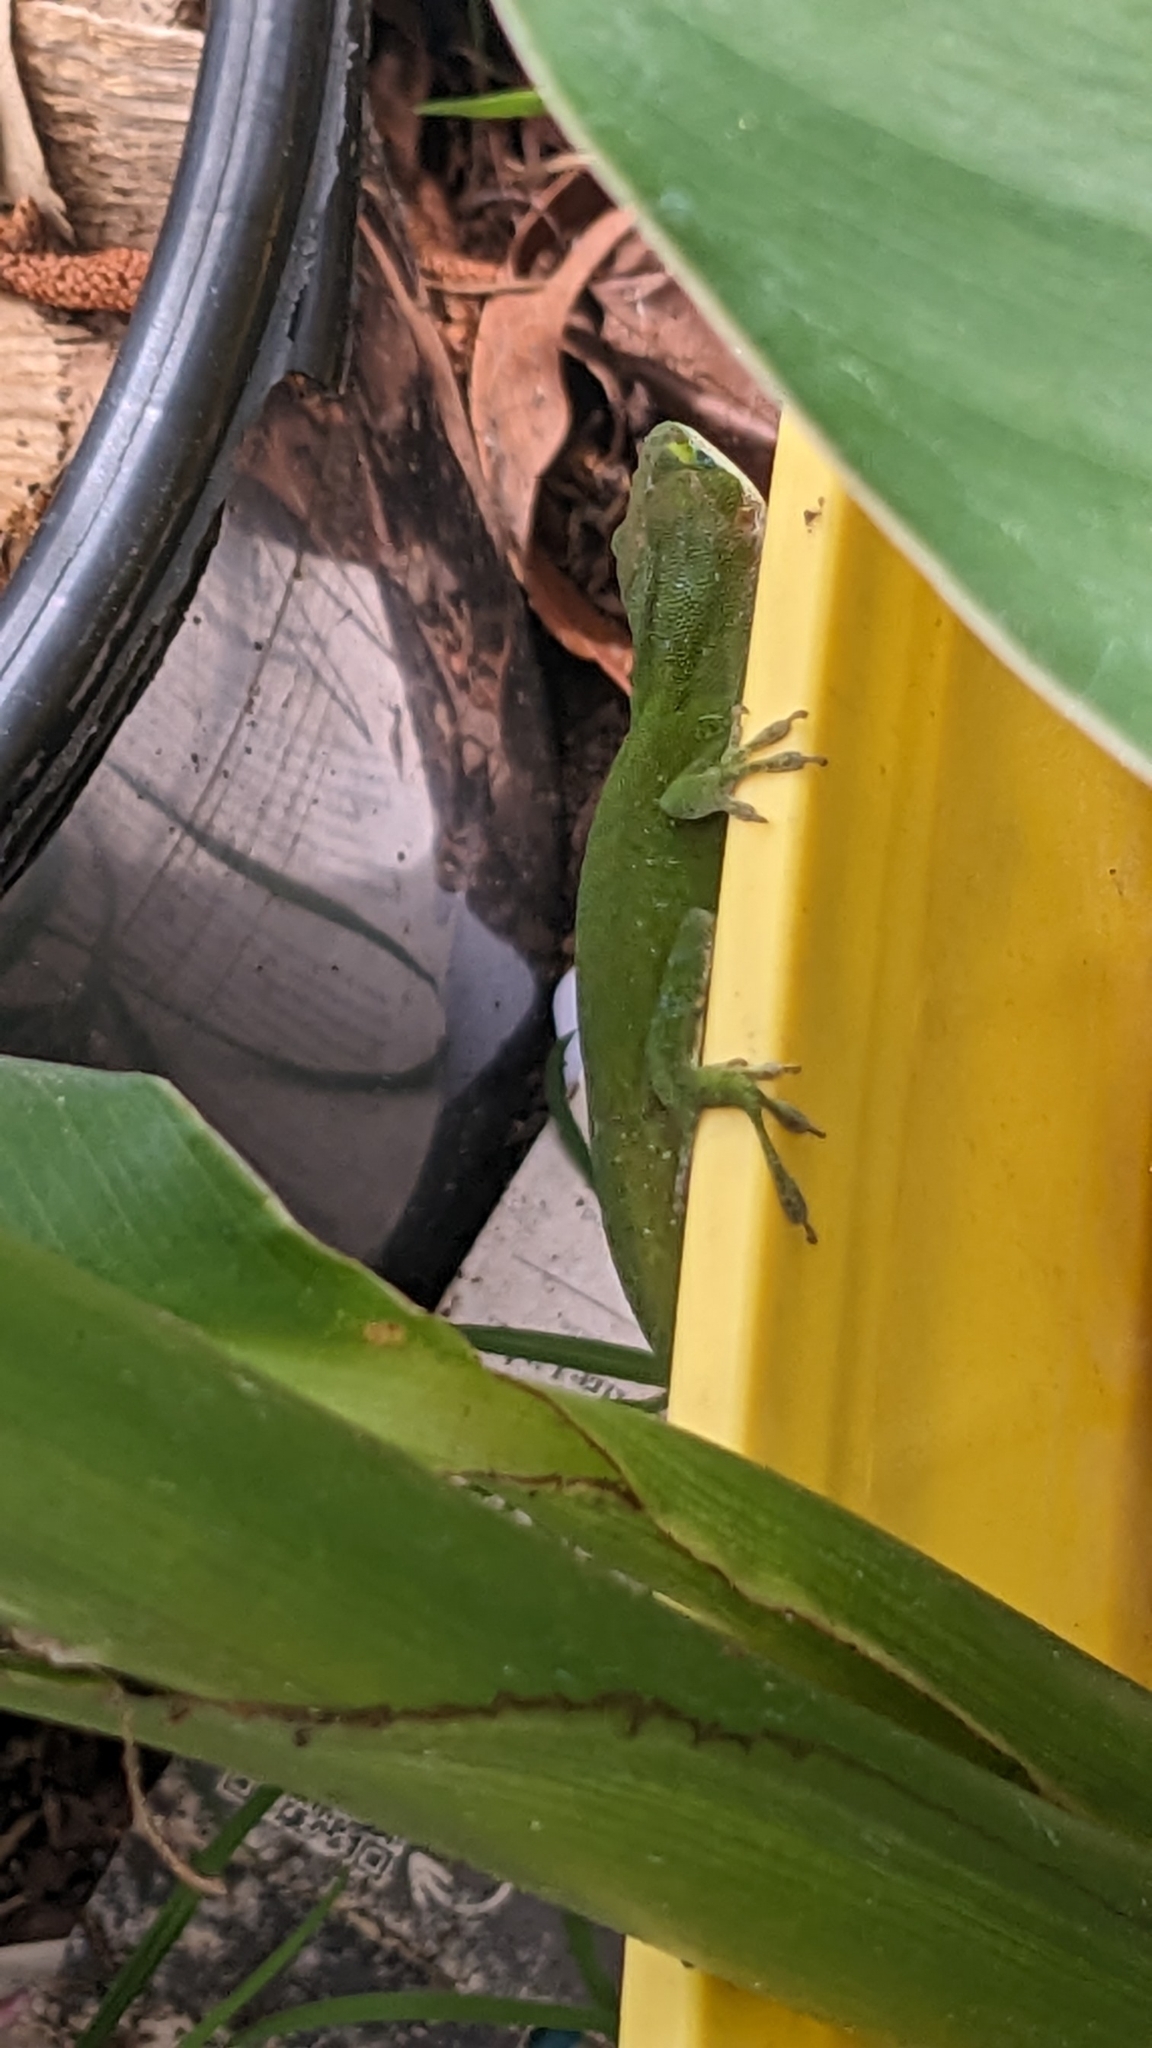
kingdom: Animalia
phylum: Chordata
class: Squamata
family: Dactyloidae
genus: Anolis
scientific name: Anolis carolinensis
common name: Green anole
